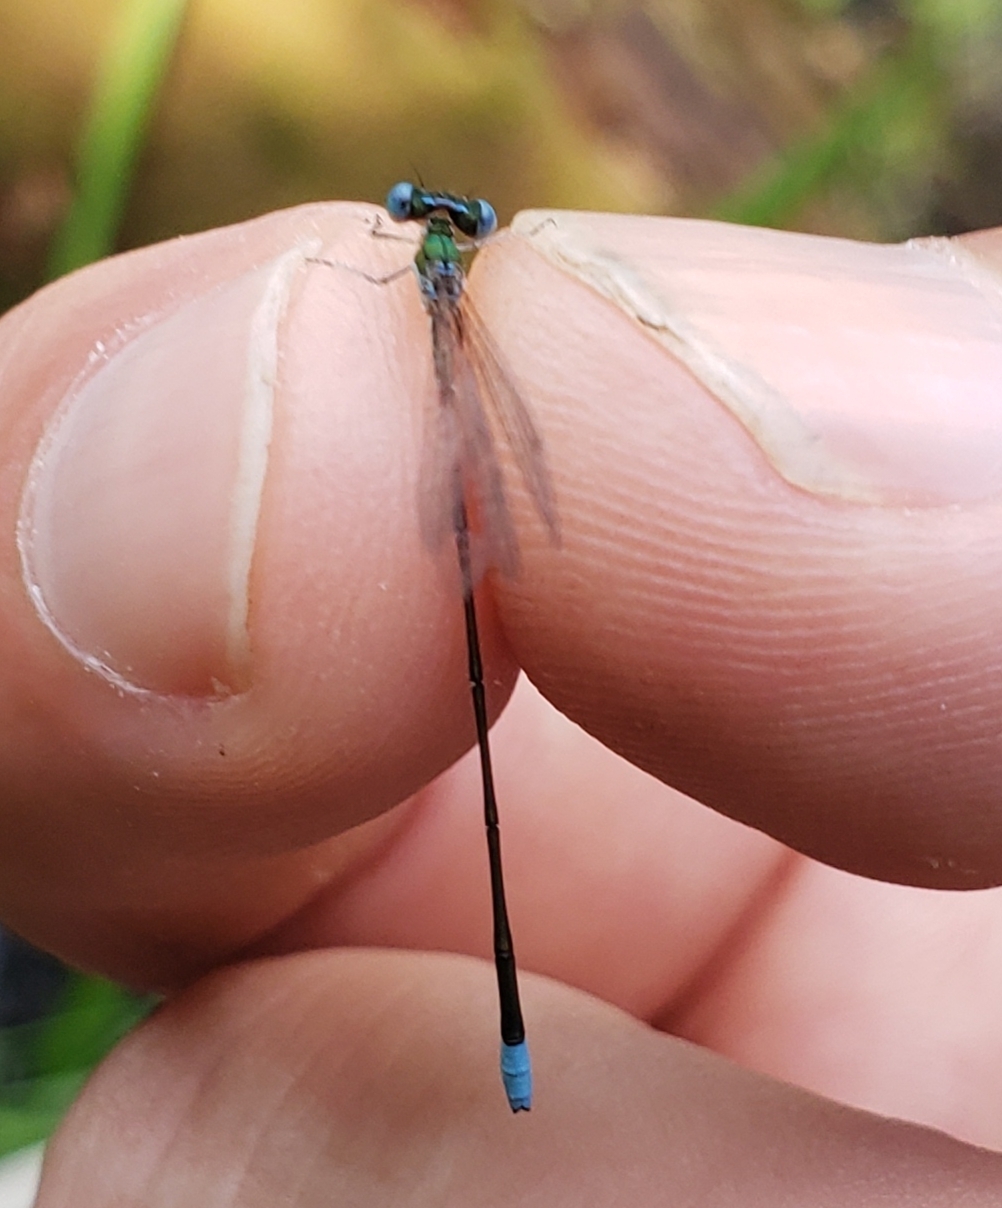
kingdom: Animalia
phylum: Arthropoda
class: Insecta
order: Odonata
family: Coenagrionidae
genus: Nehalennia
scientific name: Nehalennia gracilis
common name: Sphagnum sprite
